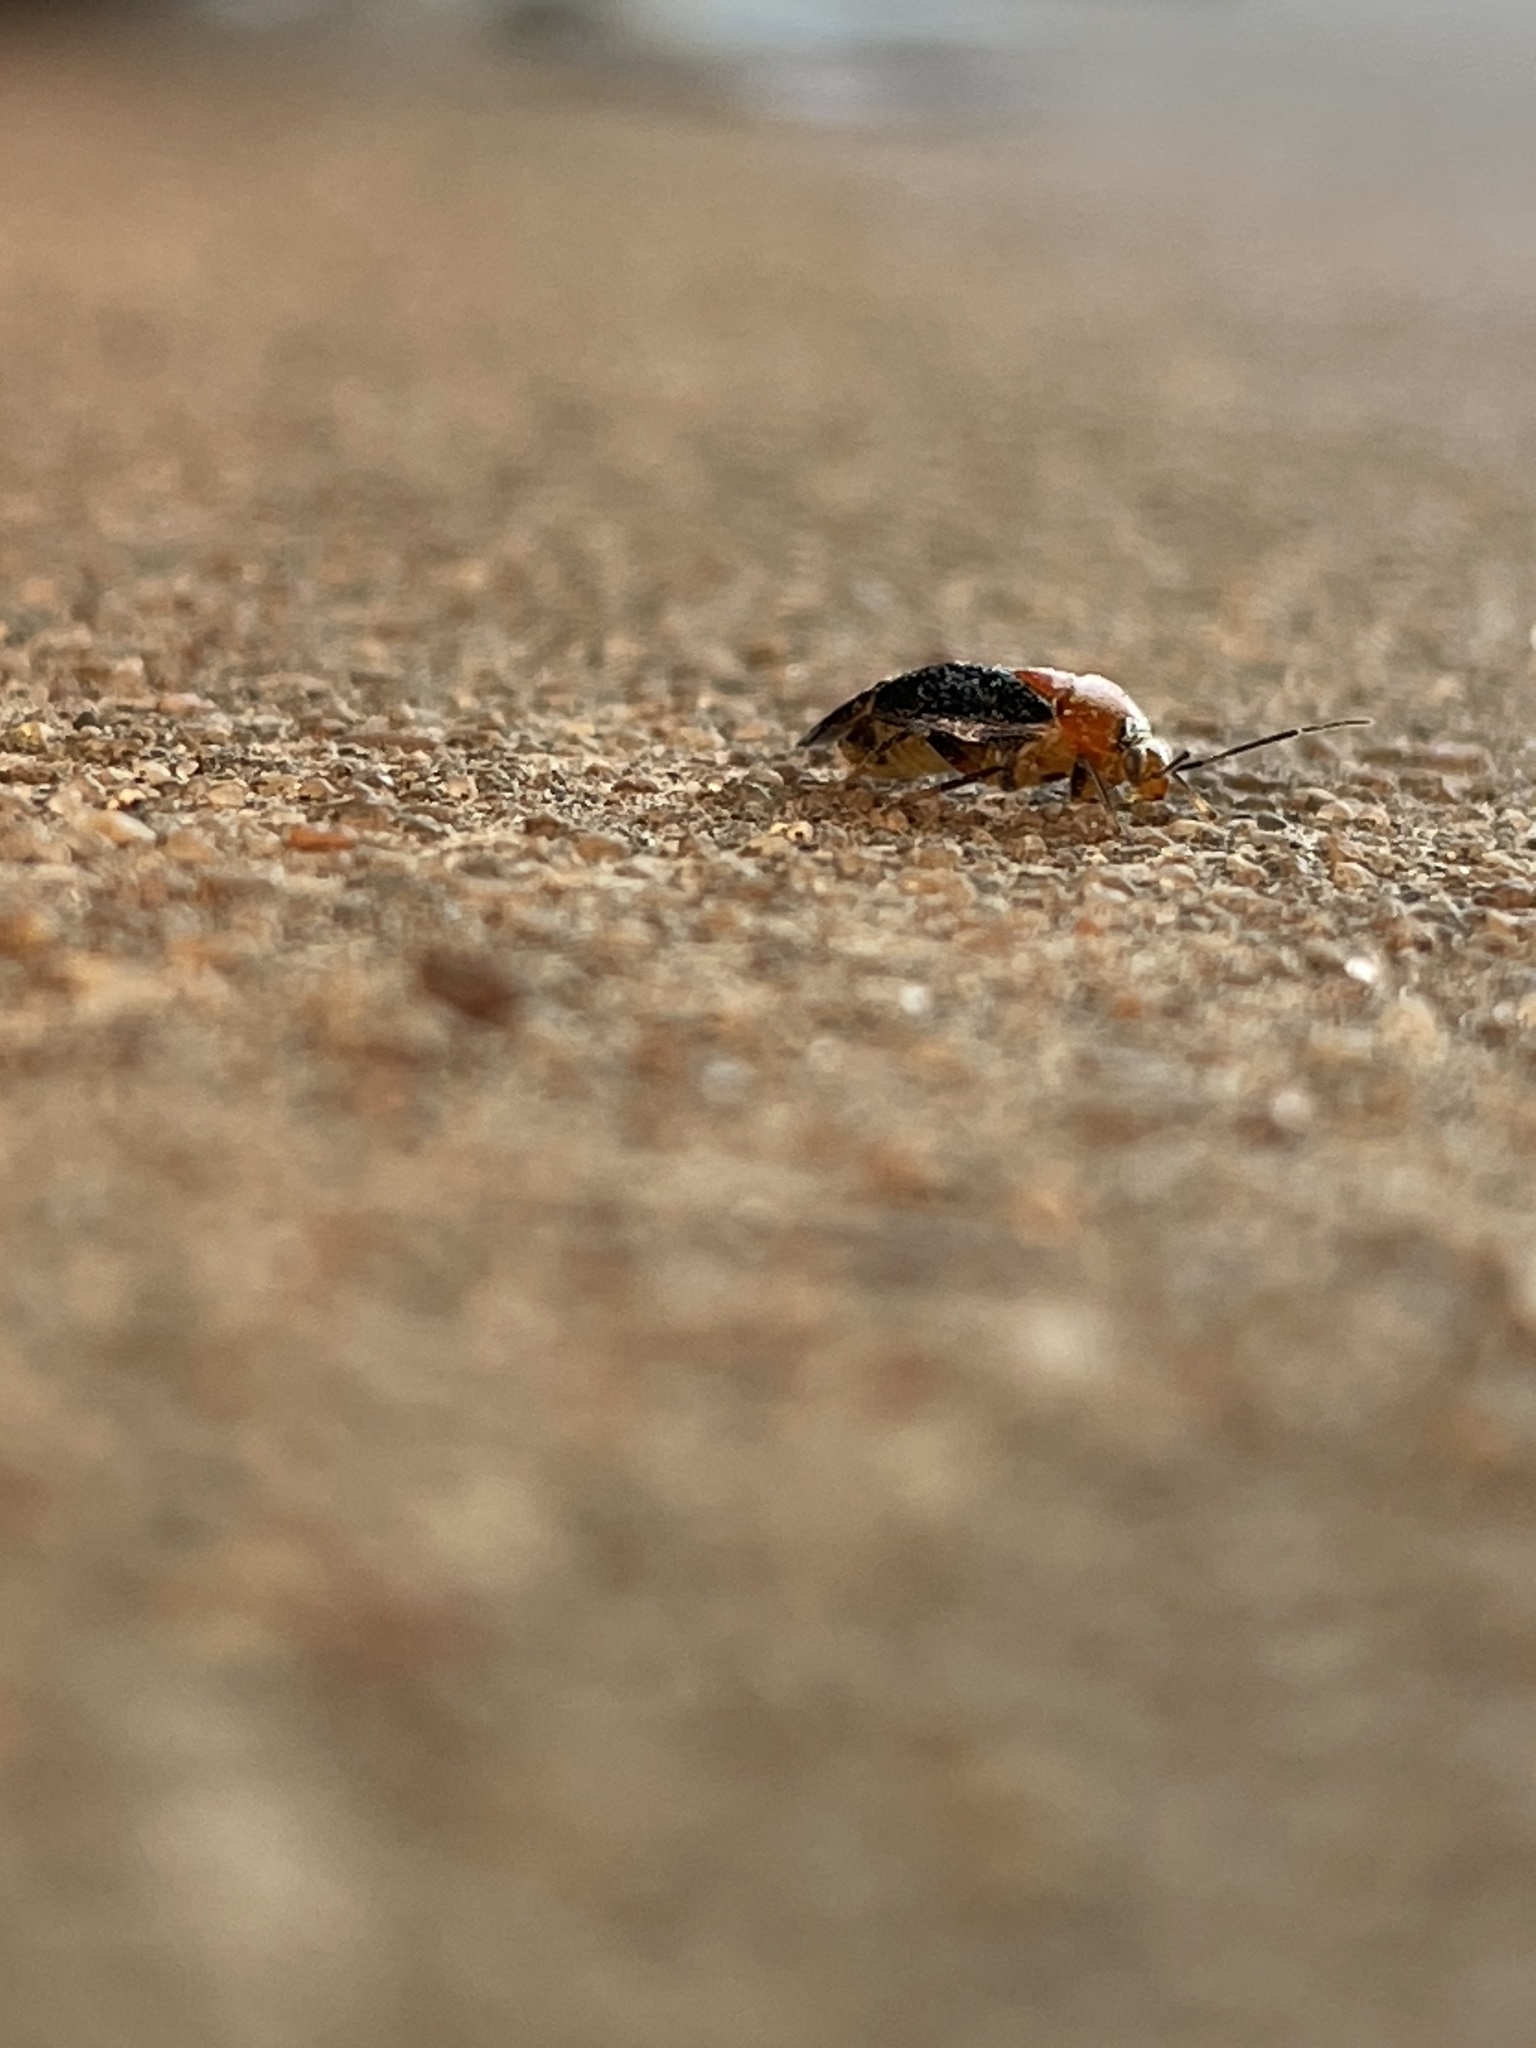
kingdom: Animalia
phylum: Arthropoda
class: Insecta
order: Hemiptera
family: Miridae
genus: Neocapsus
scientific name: Neocapsus cuneatus
